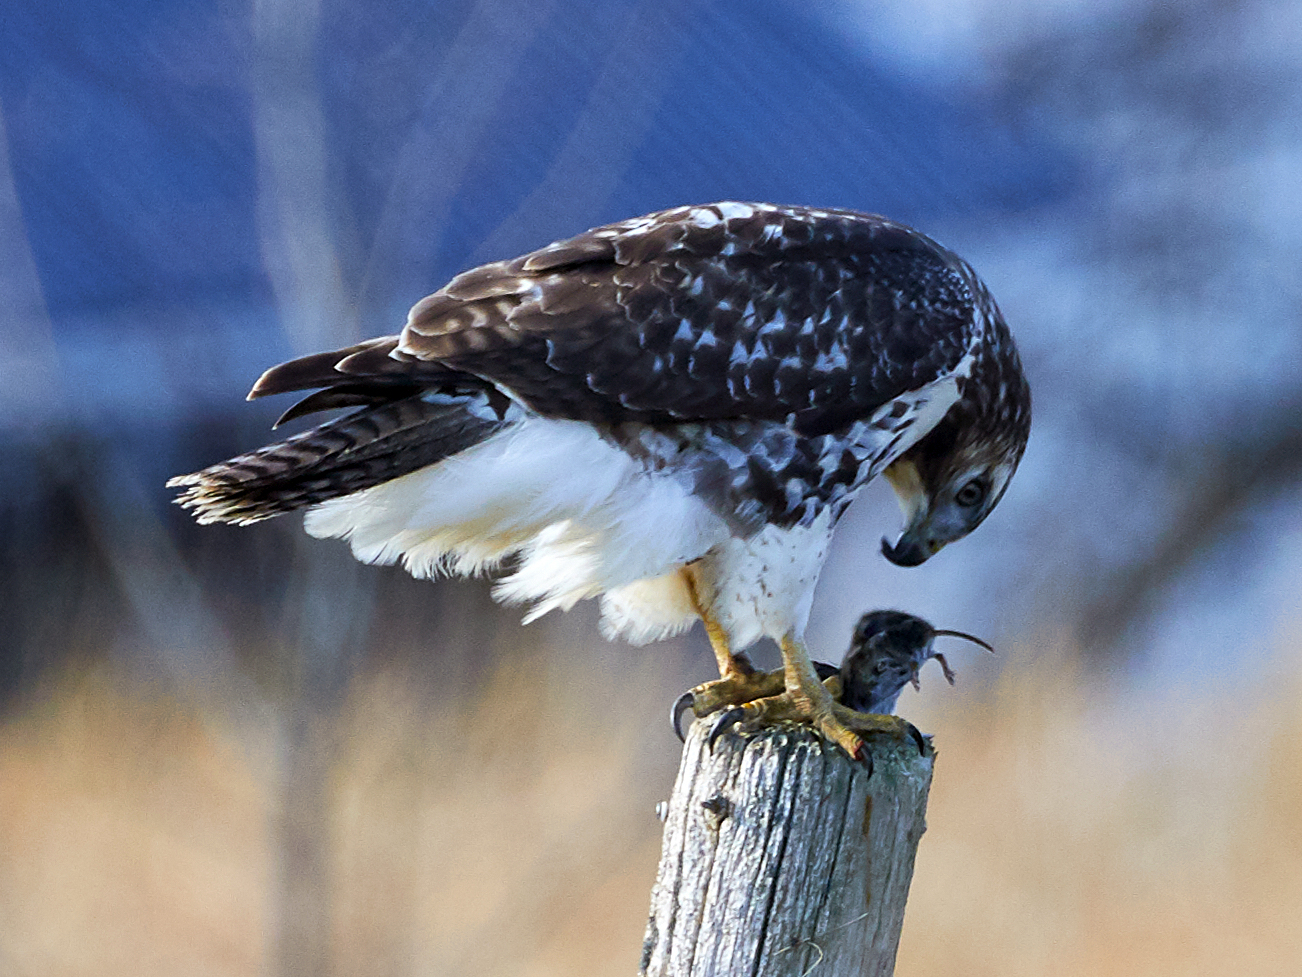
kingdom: Animalia
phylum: Chordata
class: Aves
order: Accipitriformes
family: Accipitridae
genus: Buteo
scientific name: Buteo jamaicensis
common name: Red-tailed hawk
